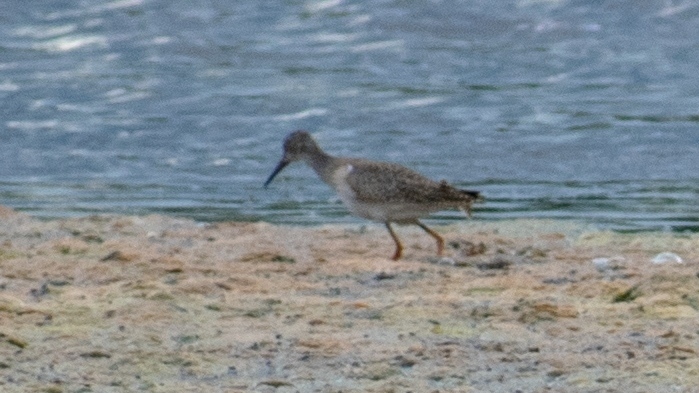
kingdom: Animalia
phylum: Chordata
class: Aves
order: Charadriiformes
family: Scolopacidae
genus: Tringa
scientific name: Tringa totanus
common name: Common redshank
